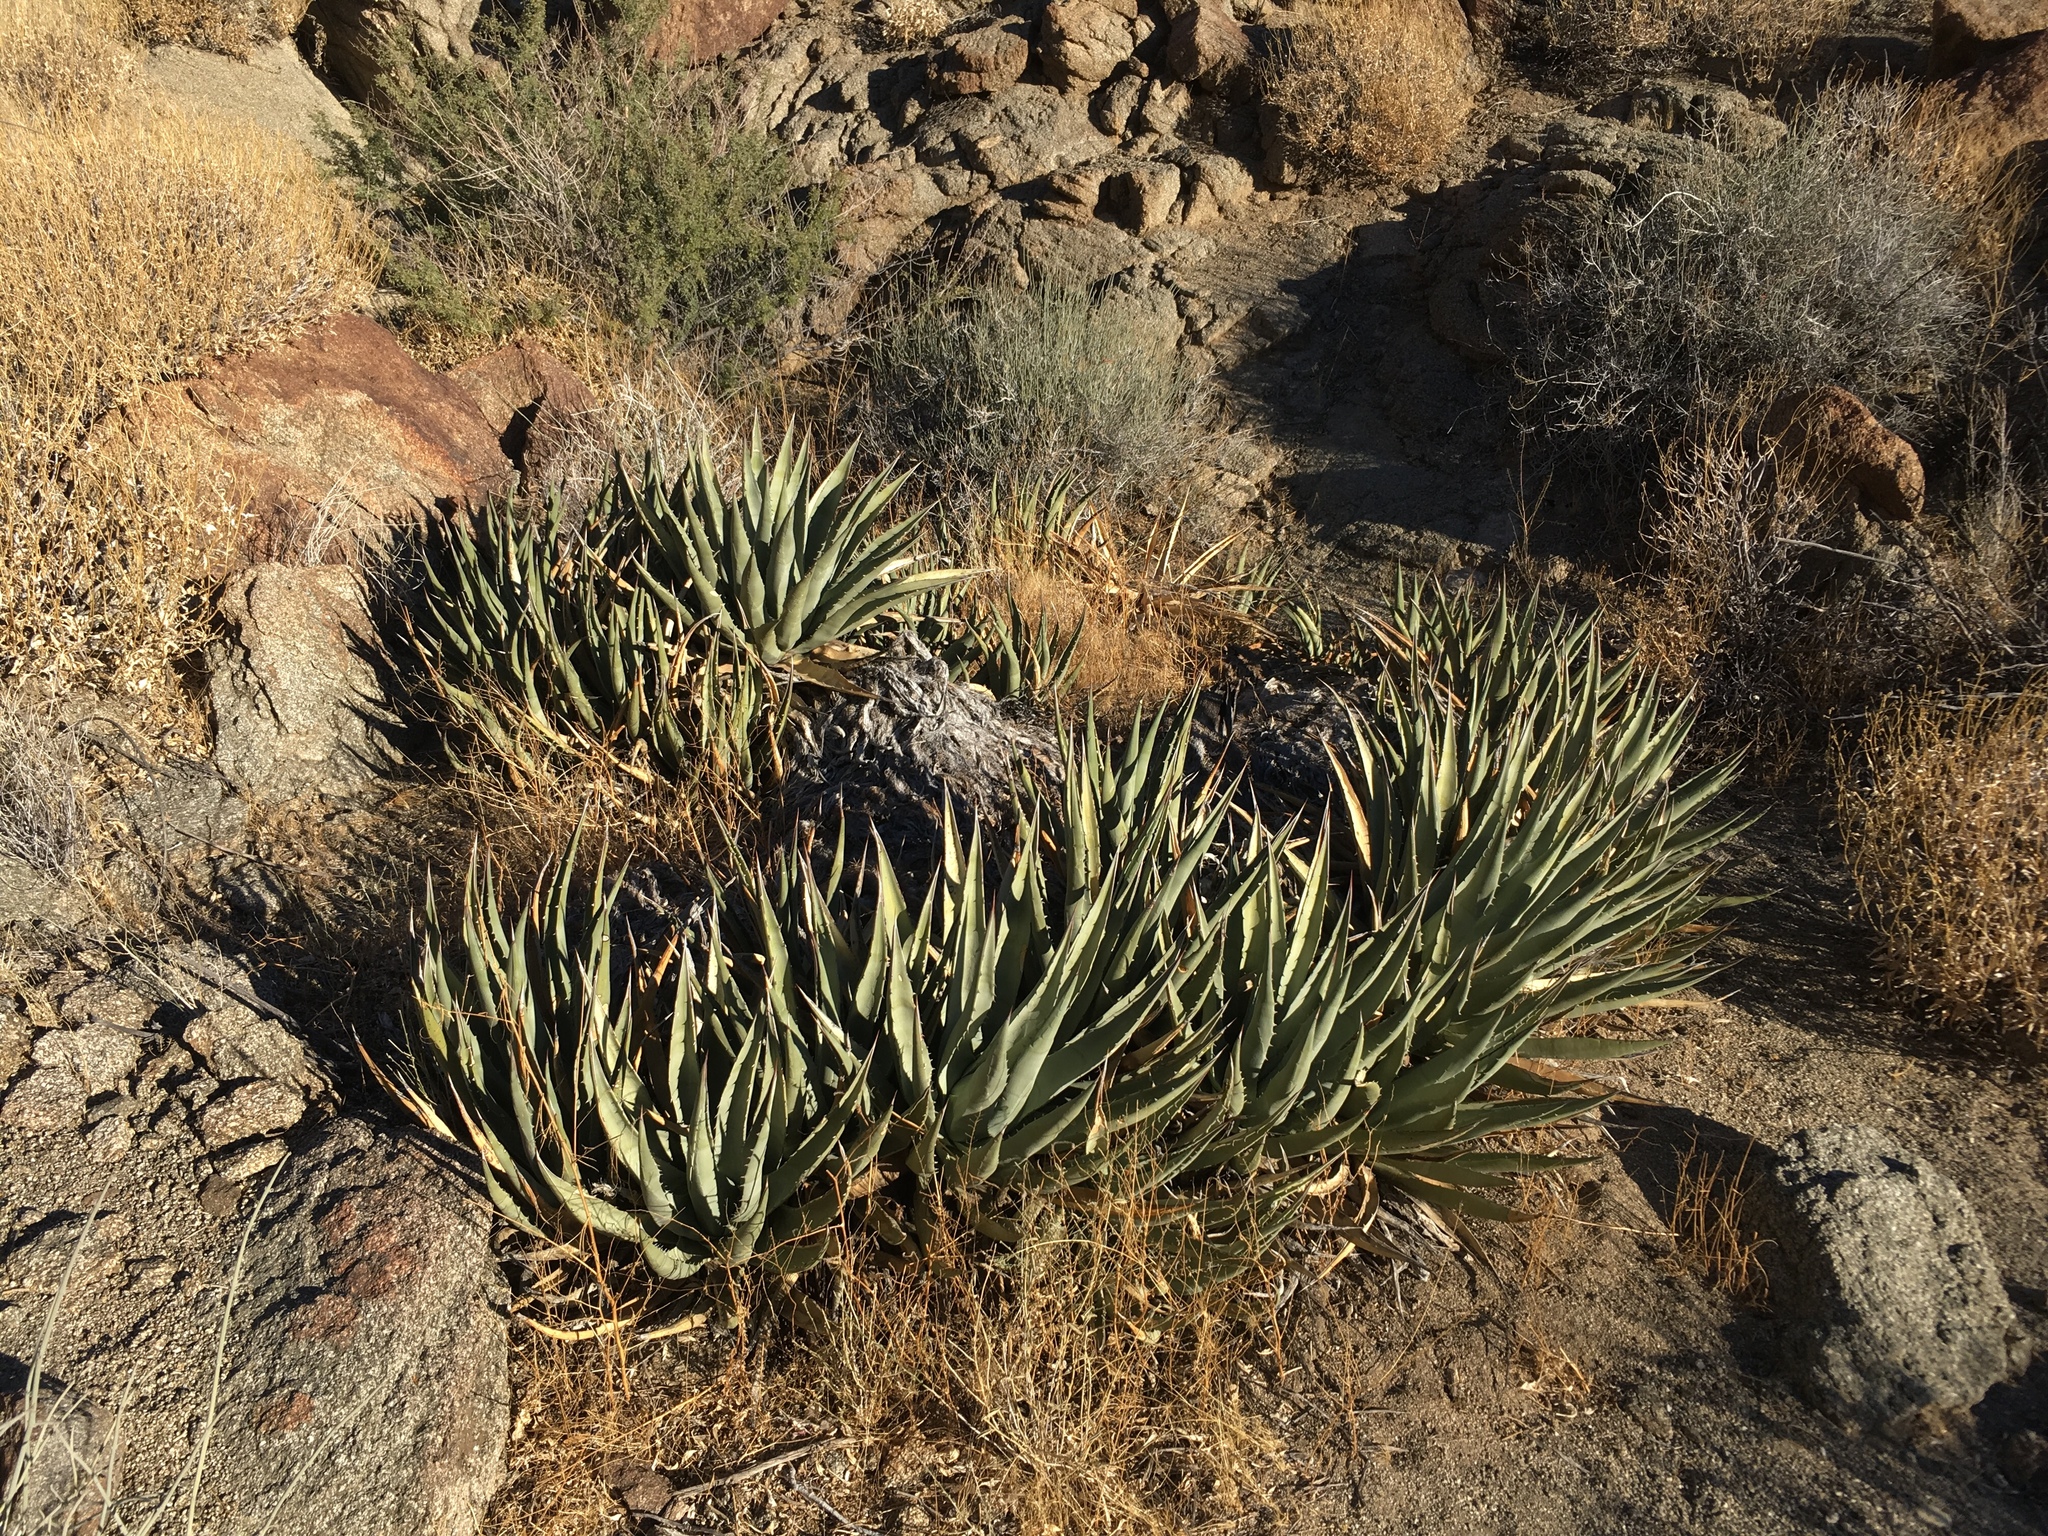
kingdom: Plantae
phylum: Tracheophyta
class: Liliopsida
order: Asparagales
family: Asparagaceae
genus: Agave
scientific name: Agave deserti
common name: Desert agave
